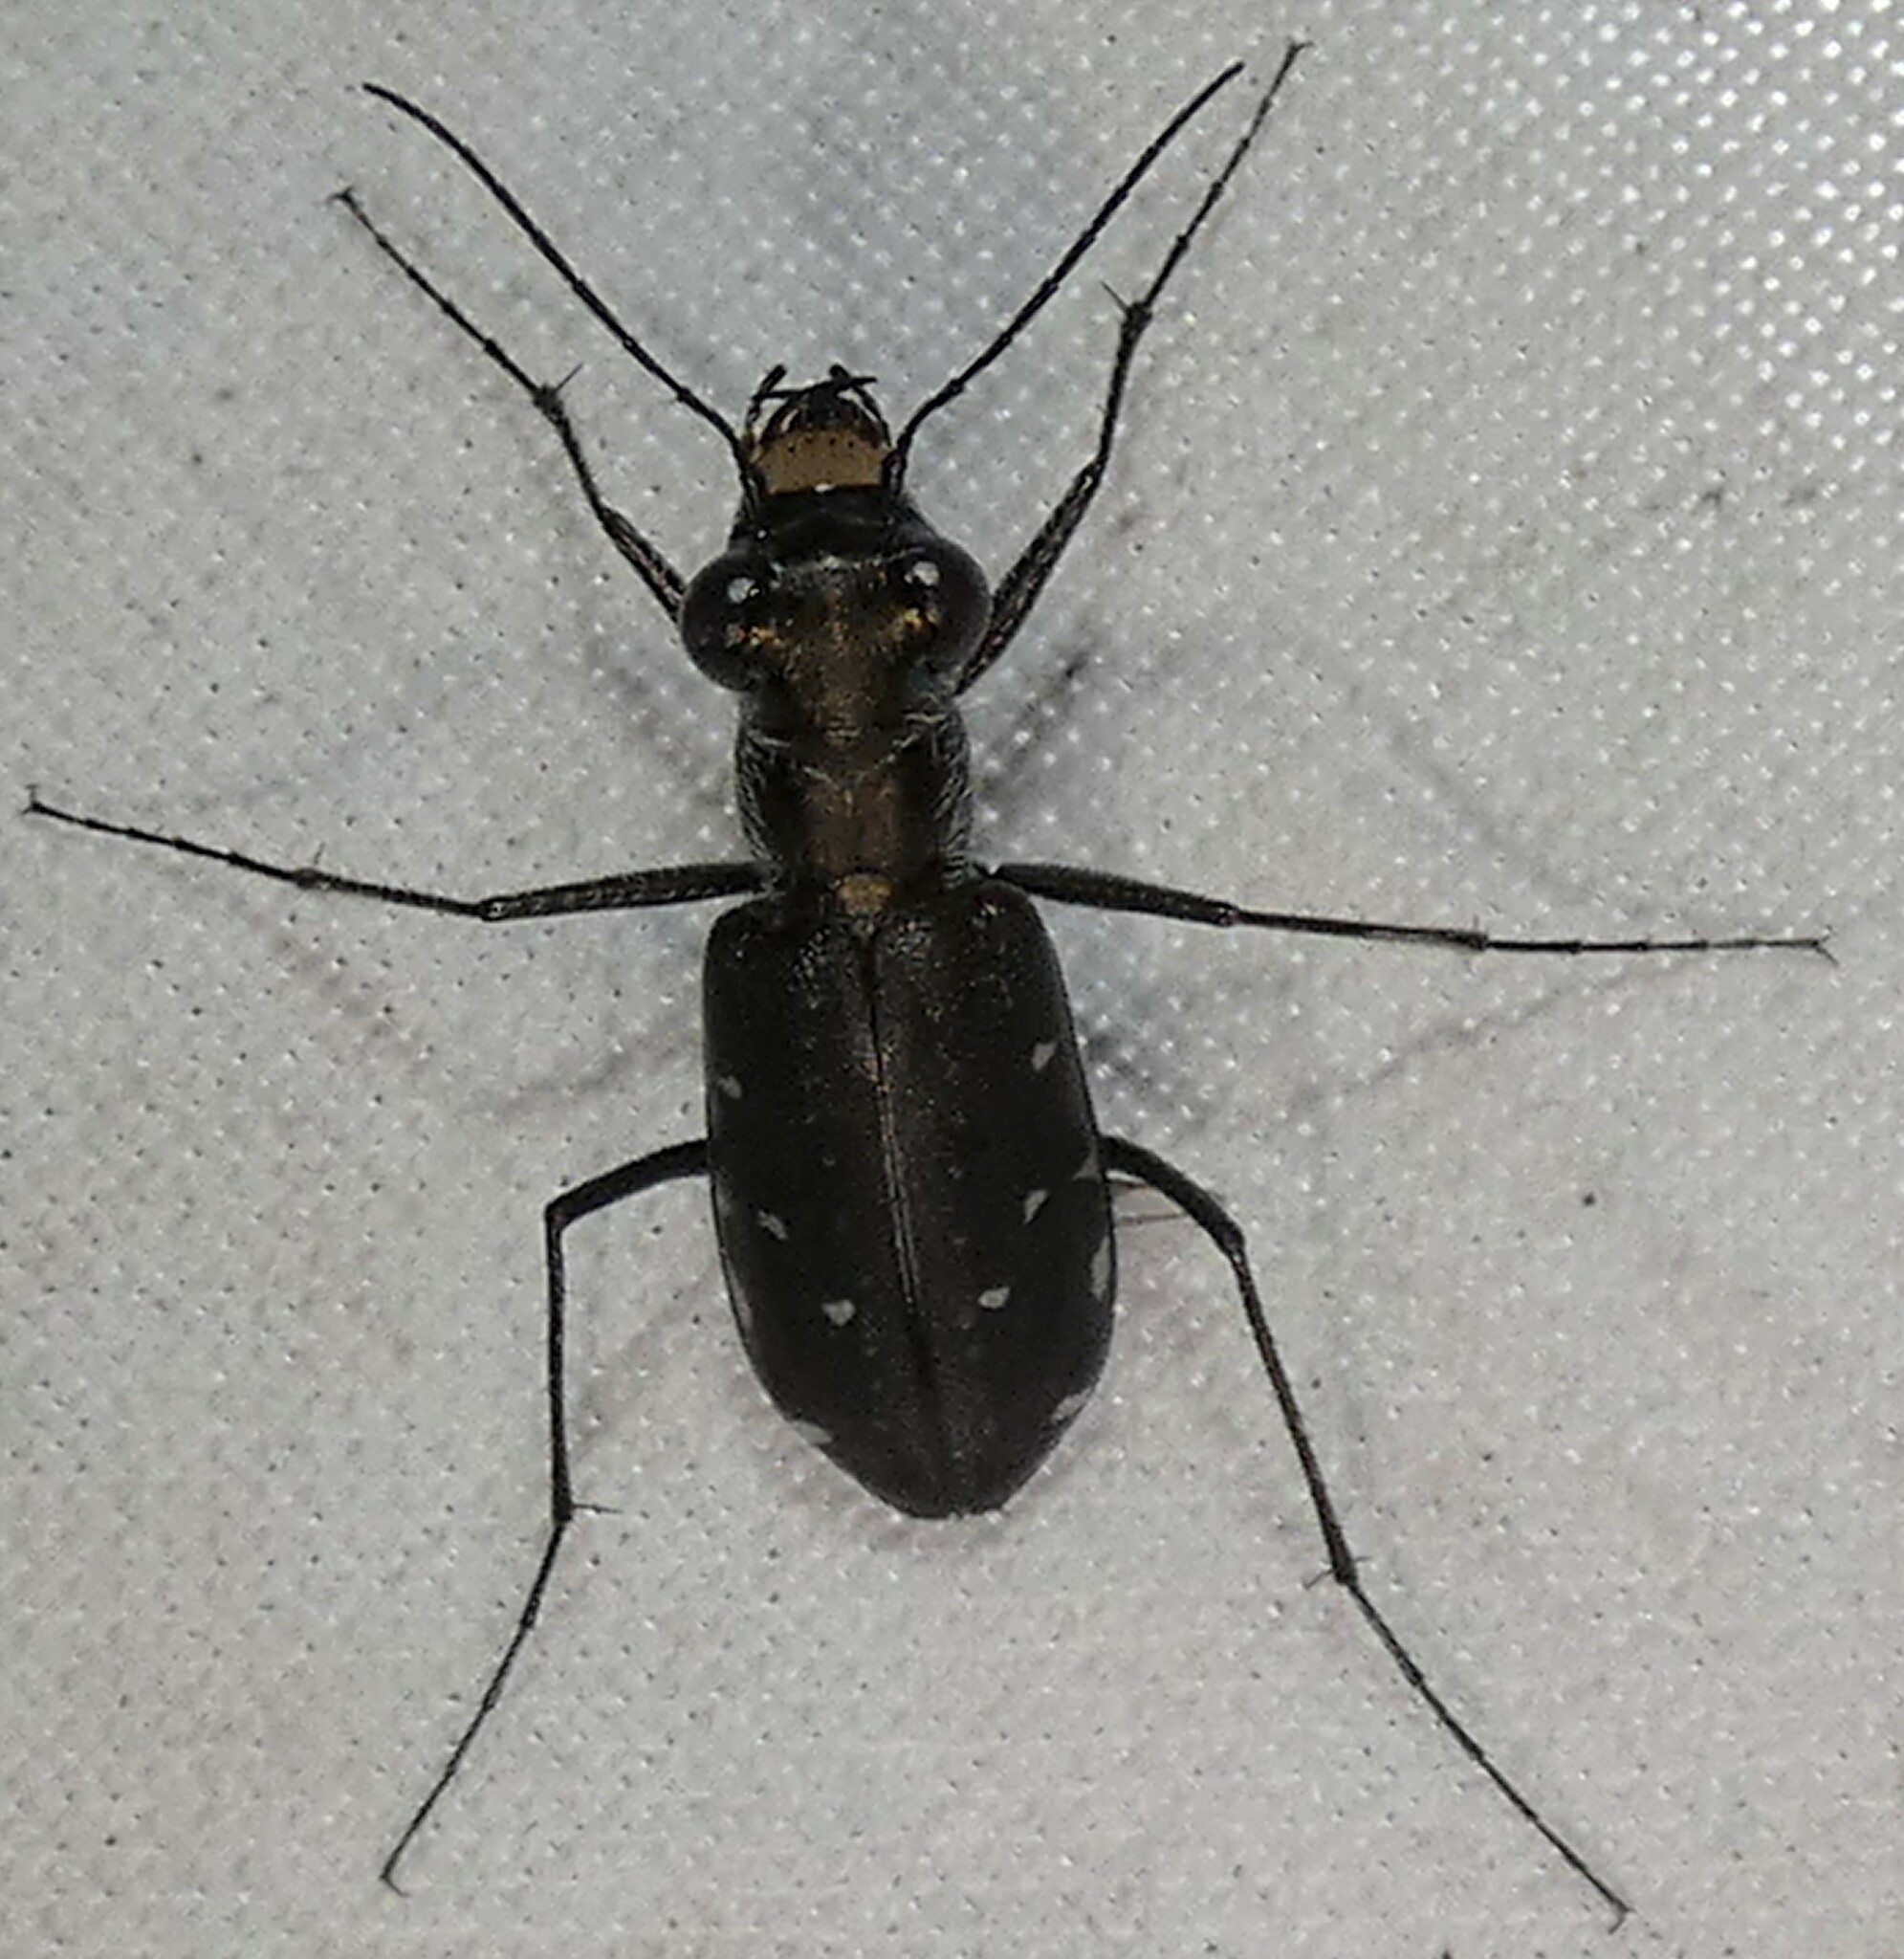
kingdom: Animalia
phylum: Arthropoda
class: Insecta
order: Coleoptera
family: Carabidae
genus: Cicindela
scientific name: Cicindela punctulata
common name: Punctured tiger beetle
